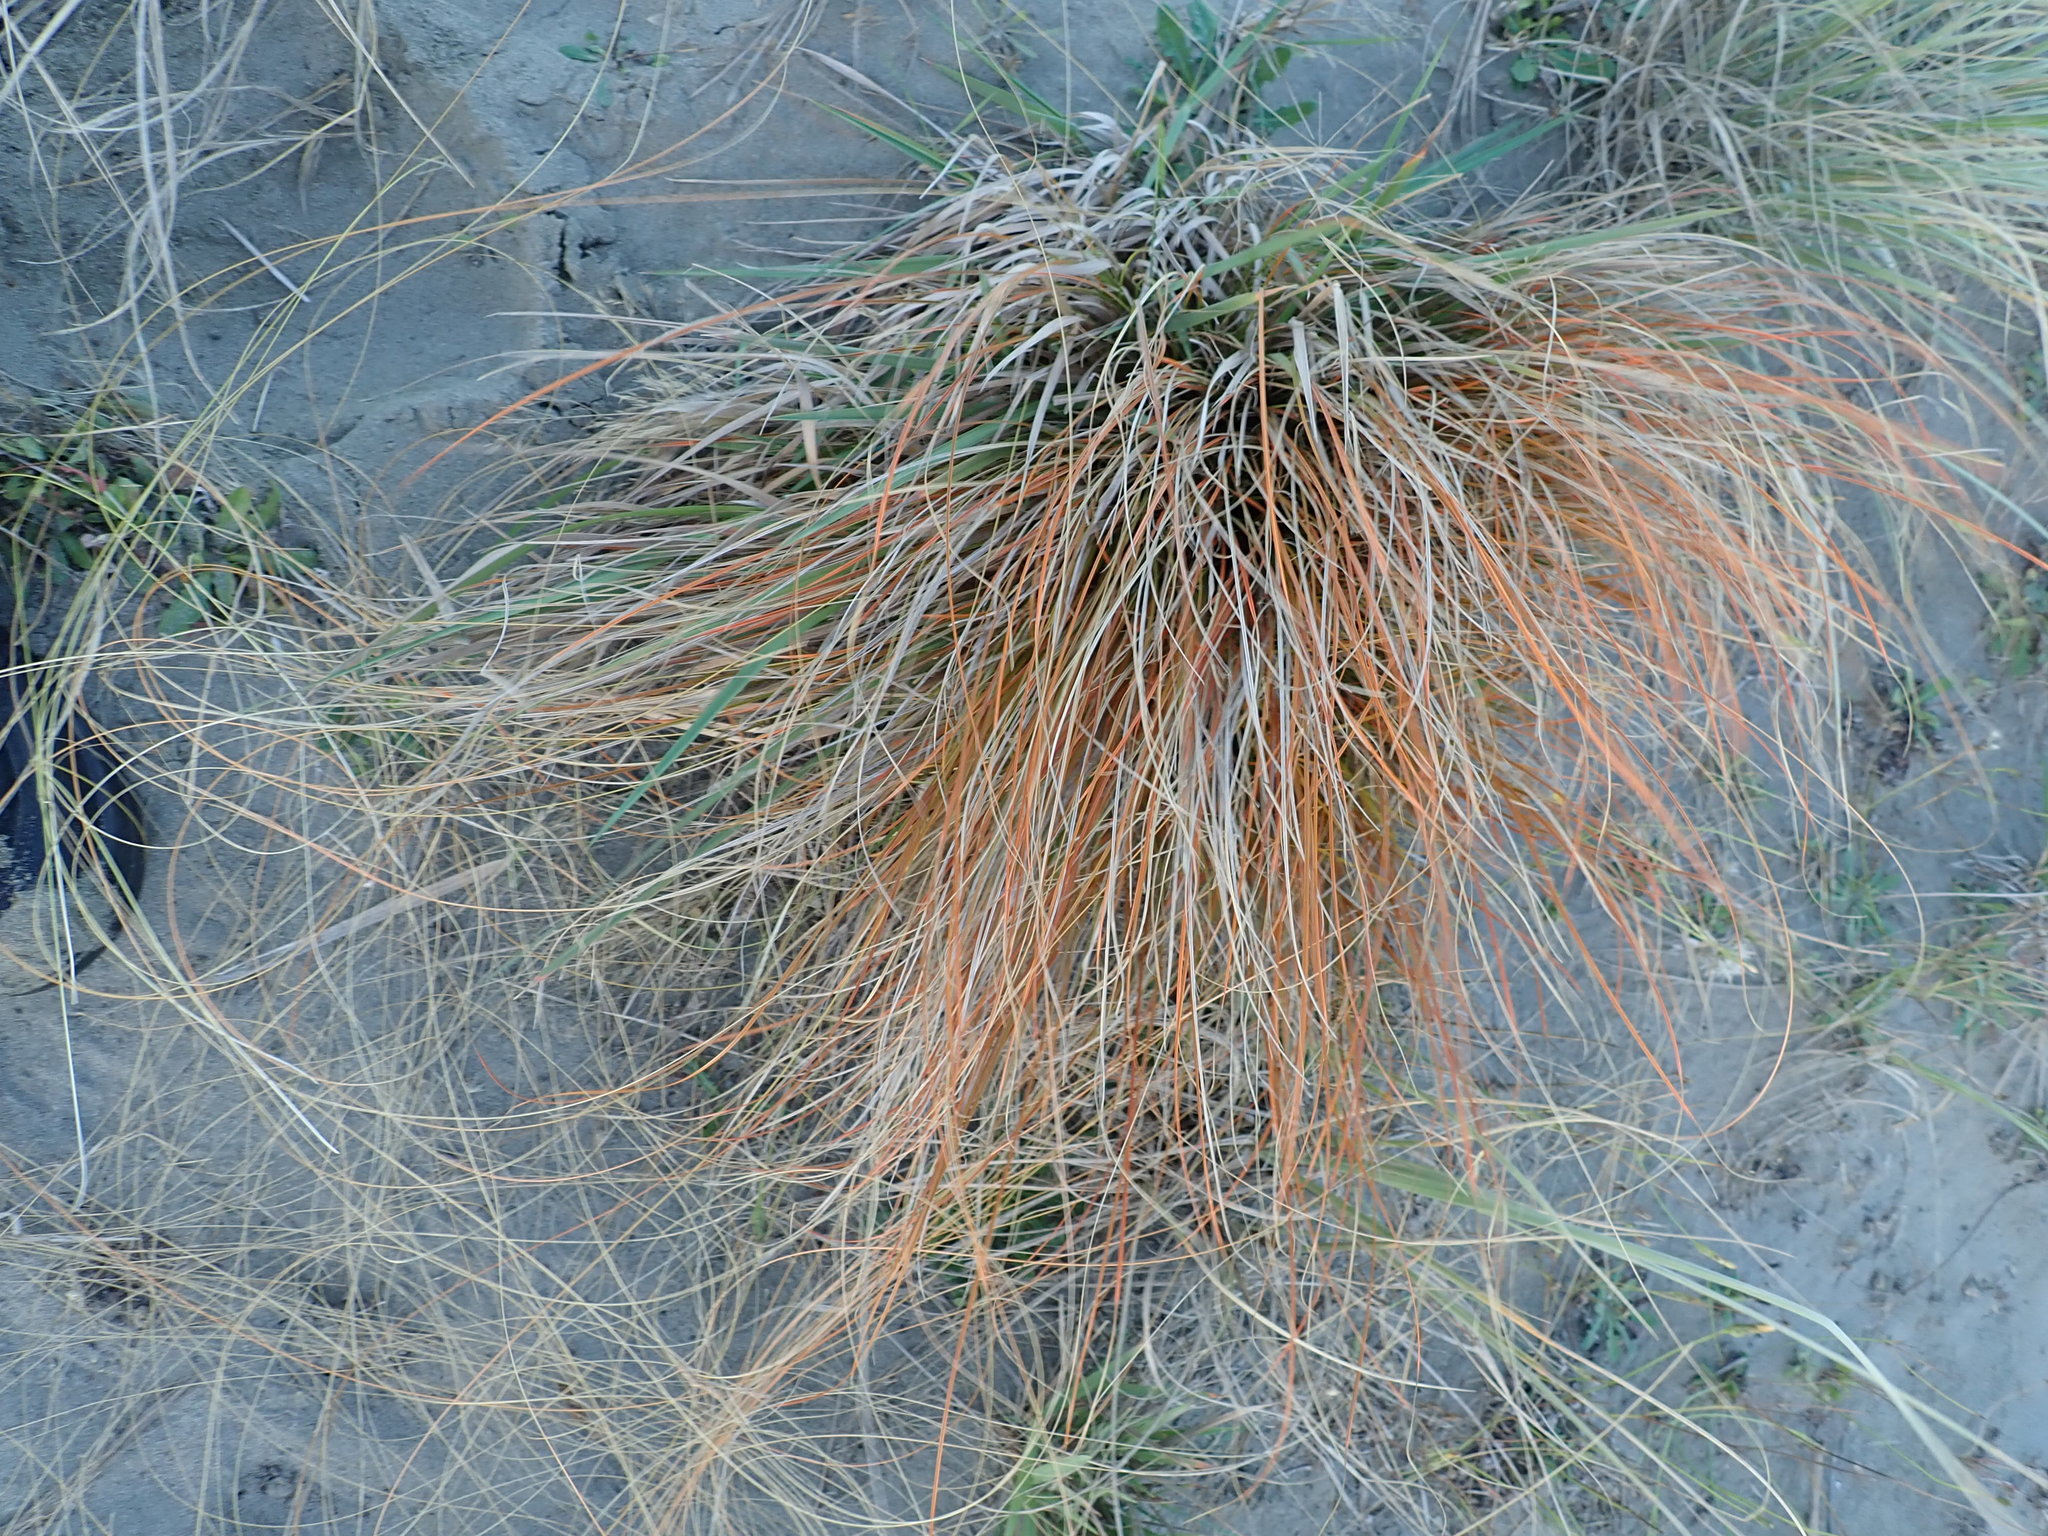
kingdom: Plantae
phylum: Tracheophyta
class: Liliopsida
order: Poales
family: Cyperaceae
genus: Carex
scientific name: Carex testacea
